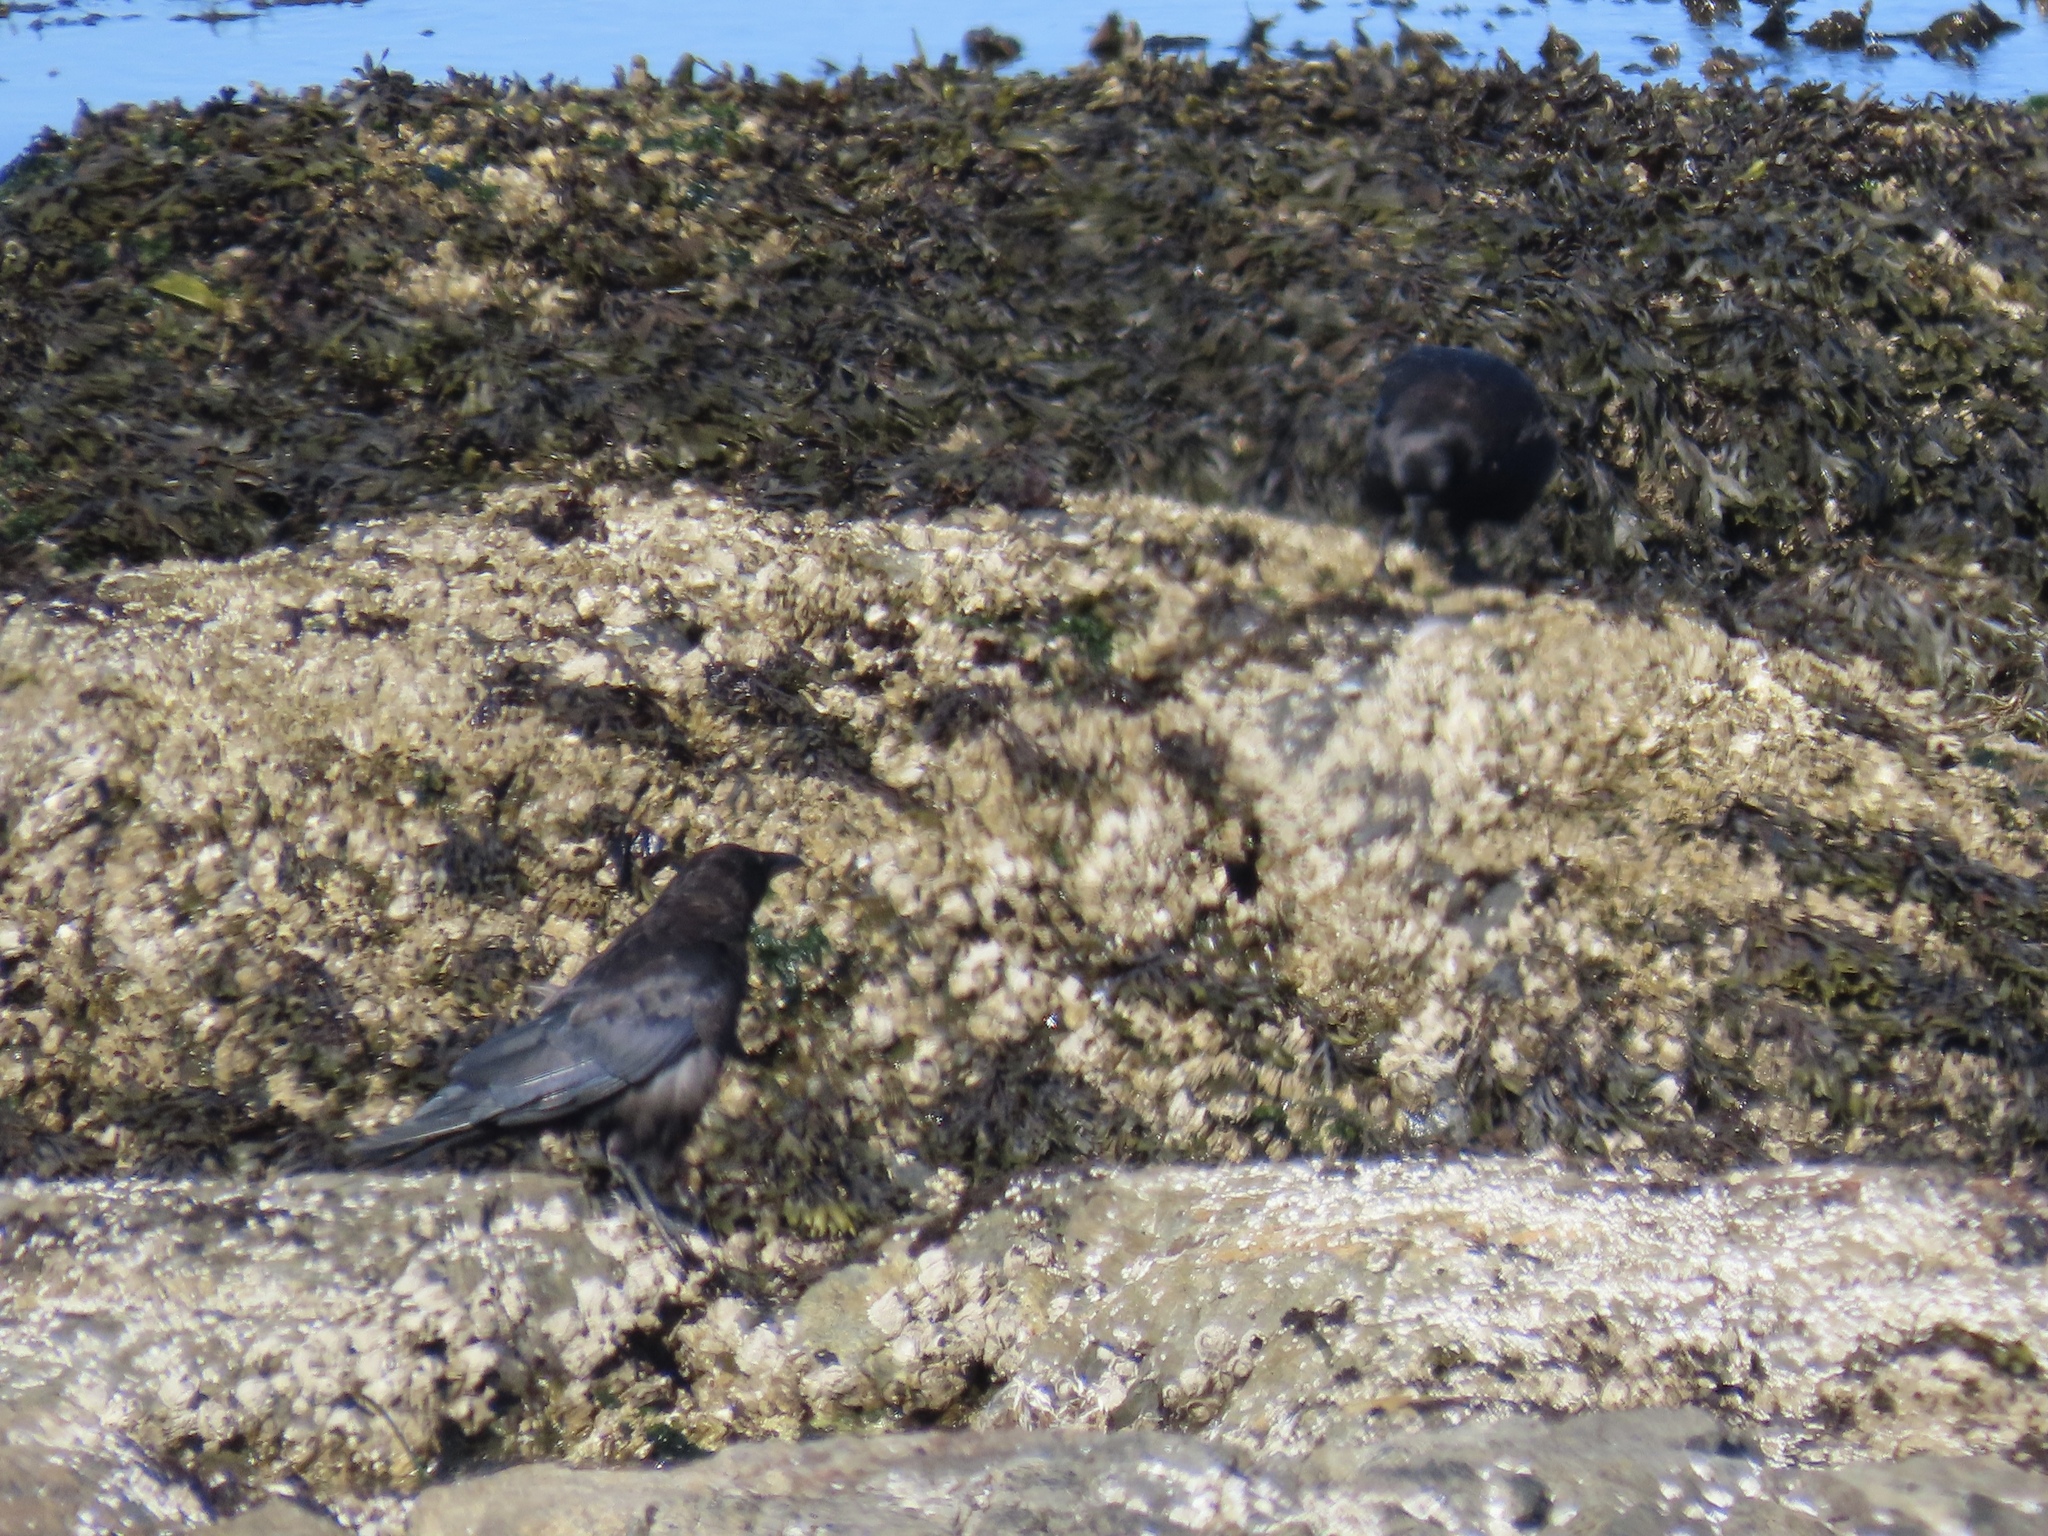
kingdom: Animalia
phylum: Chordata
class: Aves
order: Passeriformes
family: Corvidae
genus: Corvus
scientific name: Corvus brachyrhynchos
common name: American crow
